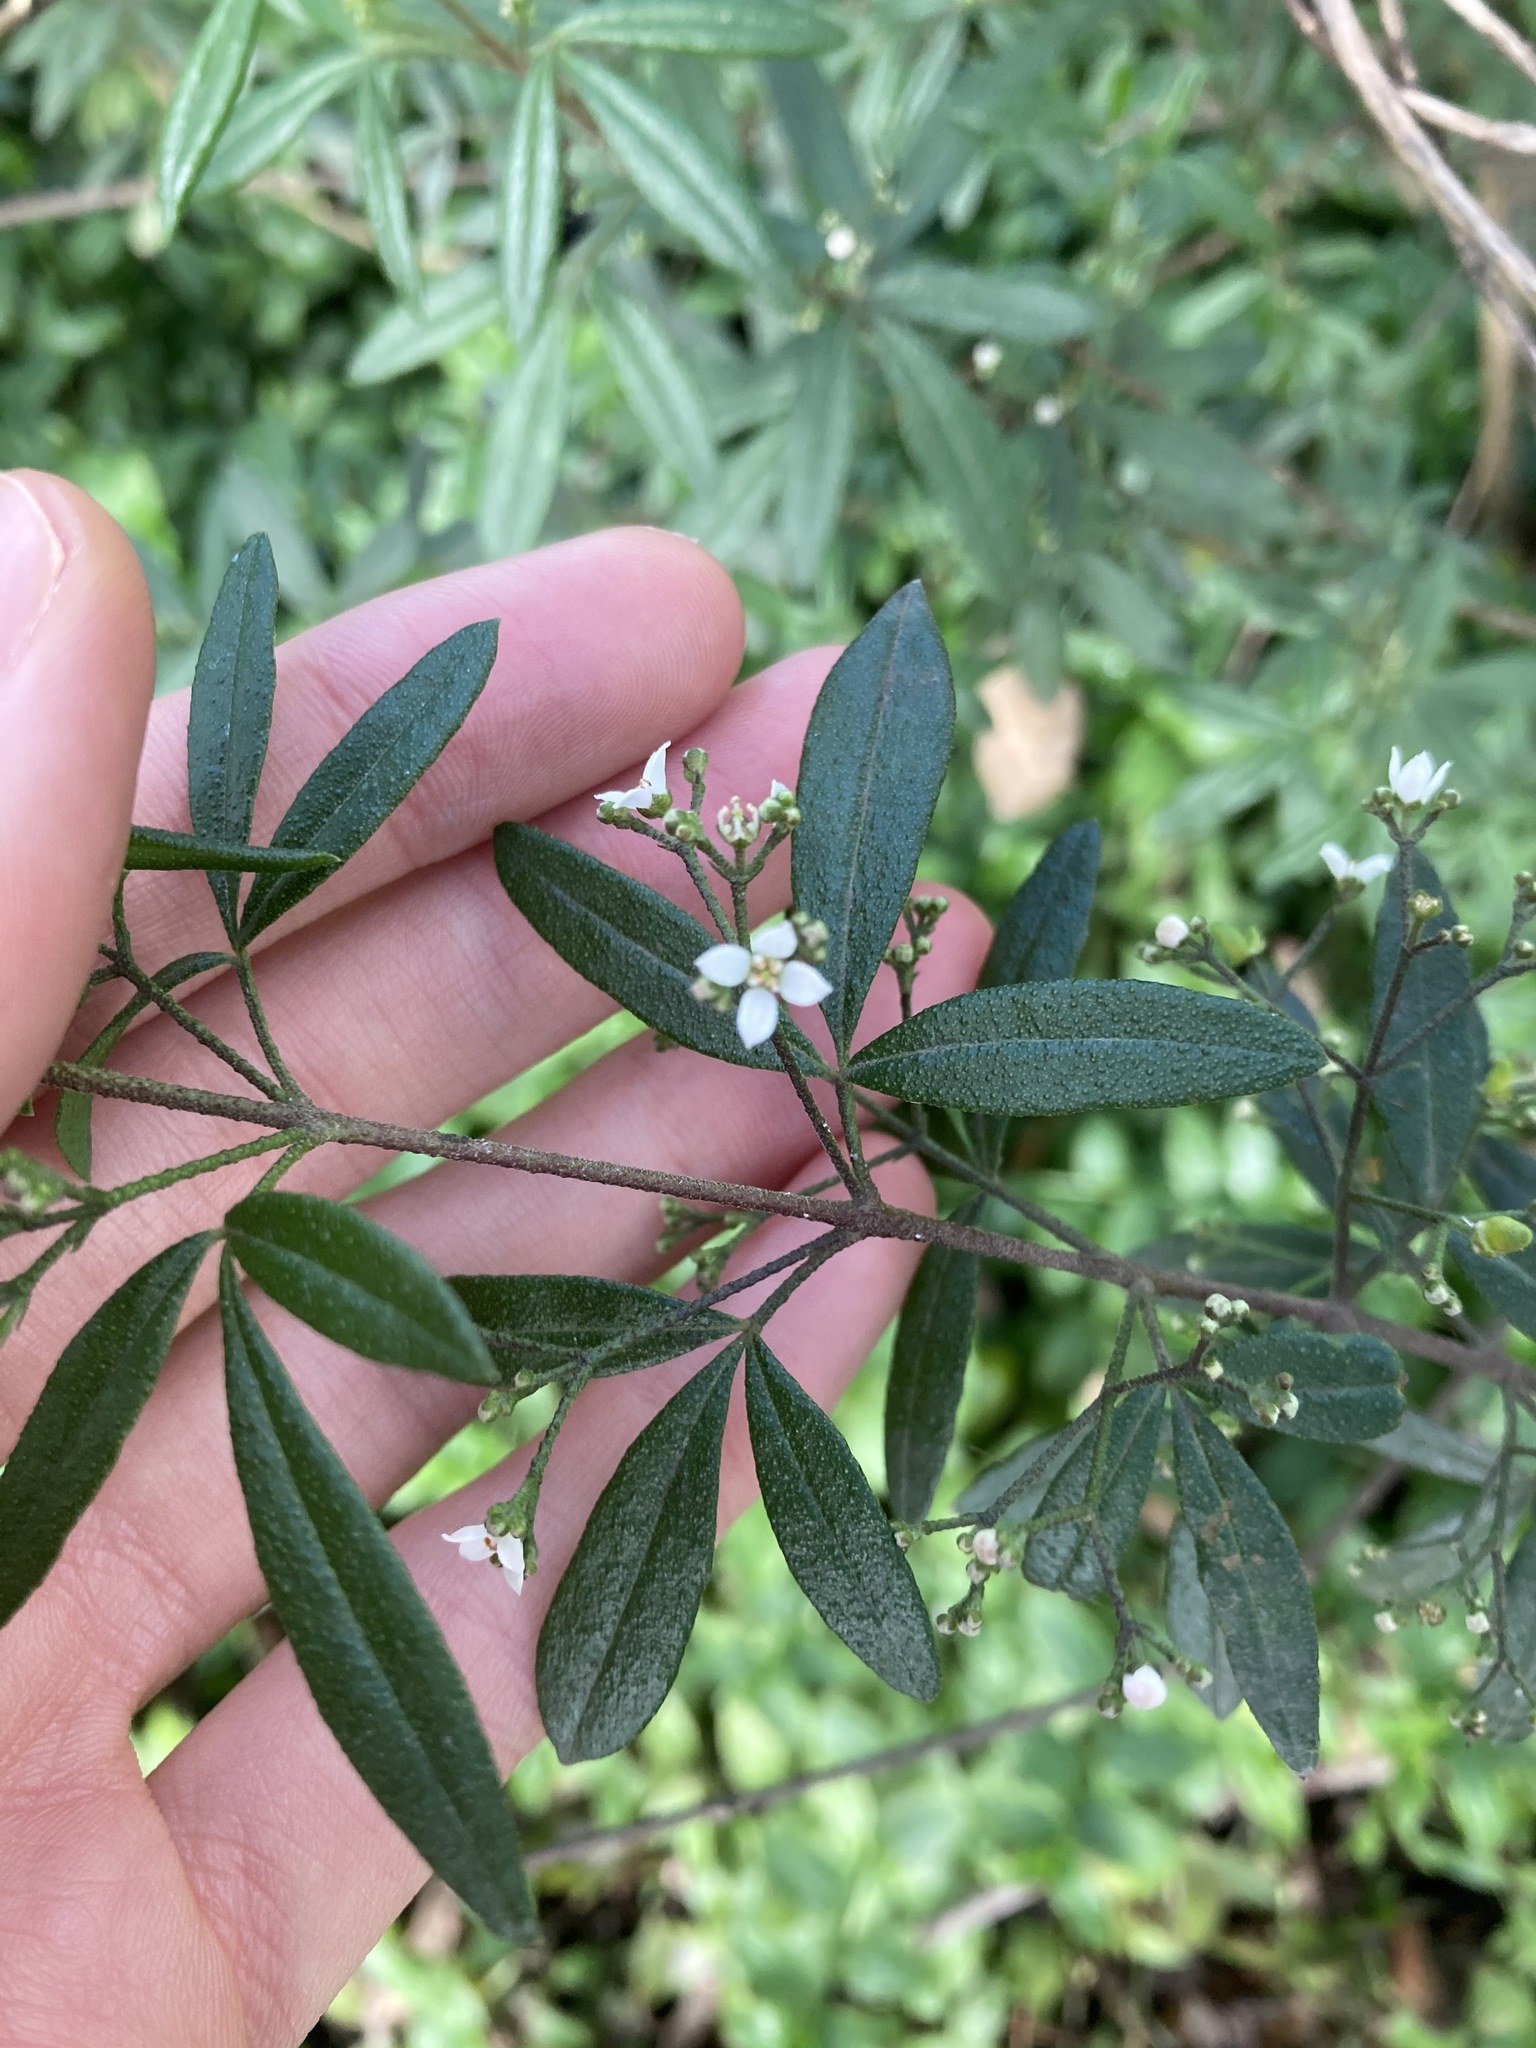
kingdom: Plantae
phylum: Tracheophyta
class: Magnoliopsida
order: Sapindales
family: Rutaceae
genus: Zieria
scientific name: Zieria smithii
